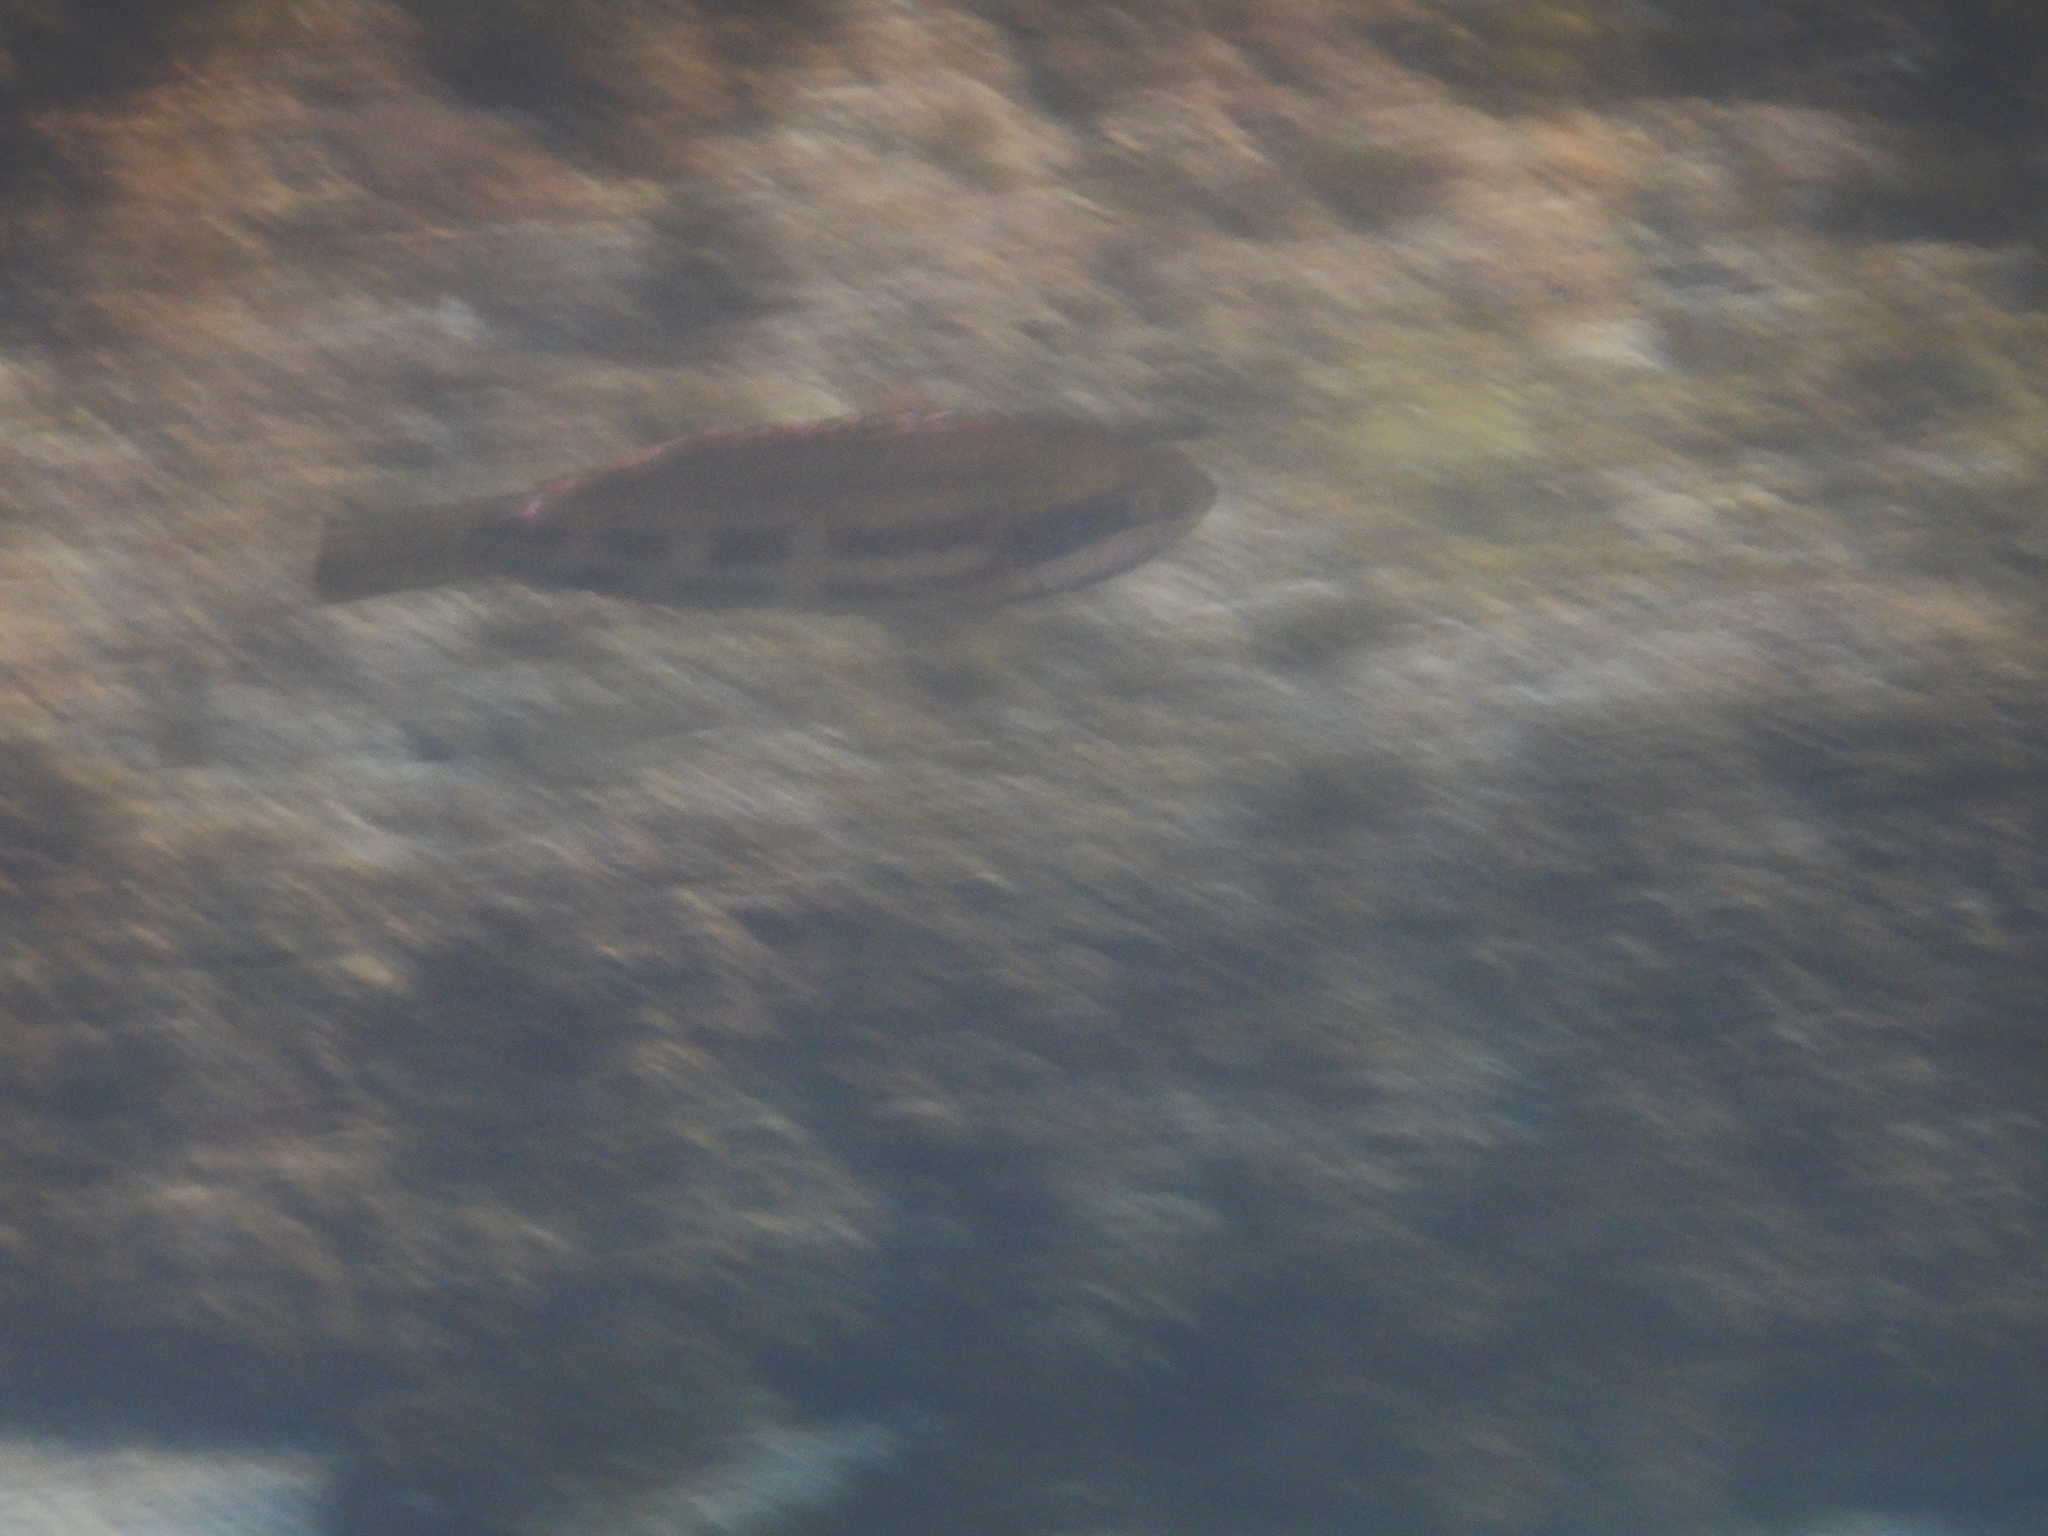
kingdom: Animalia
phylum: Chordata
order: Perciformes
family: Odacidae
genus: Heteroscarus
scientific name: Heteroscarus acroptilus
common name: Marine rainbowfish
